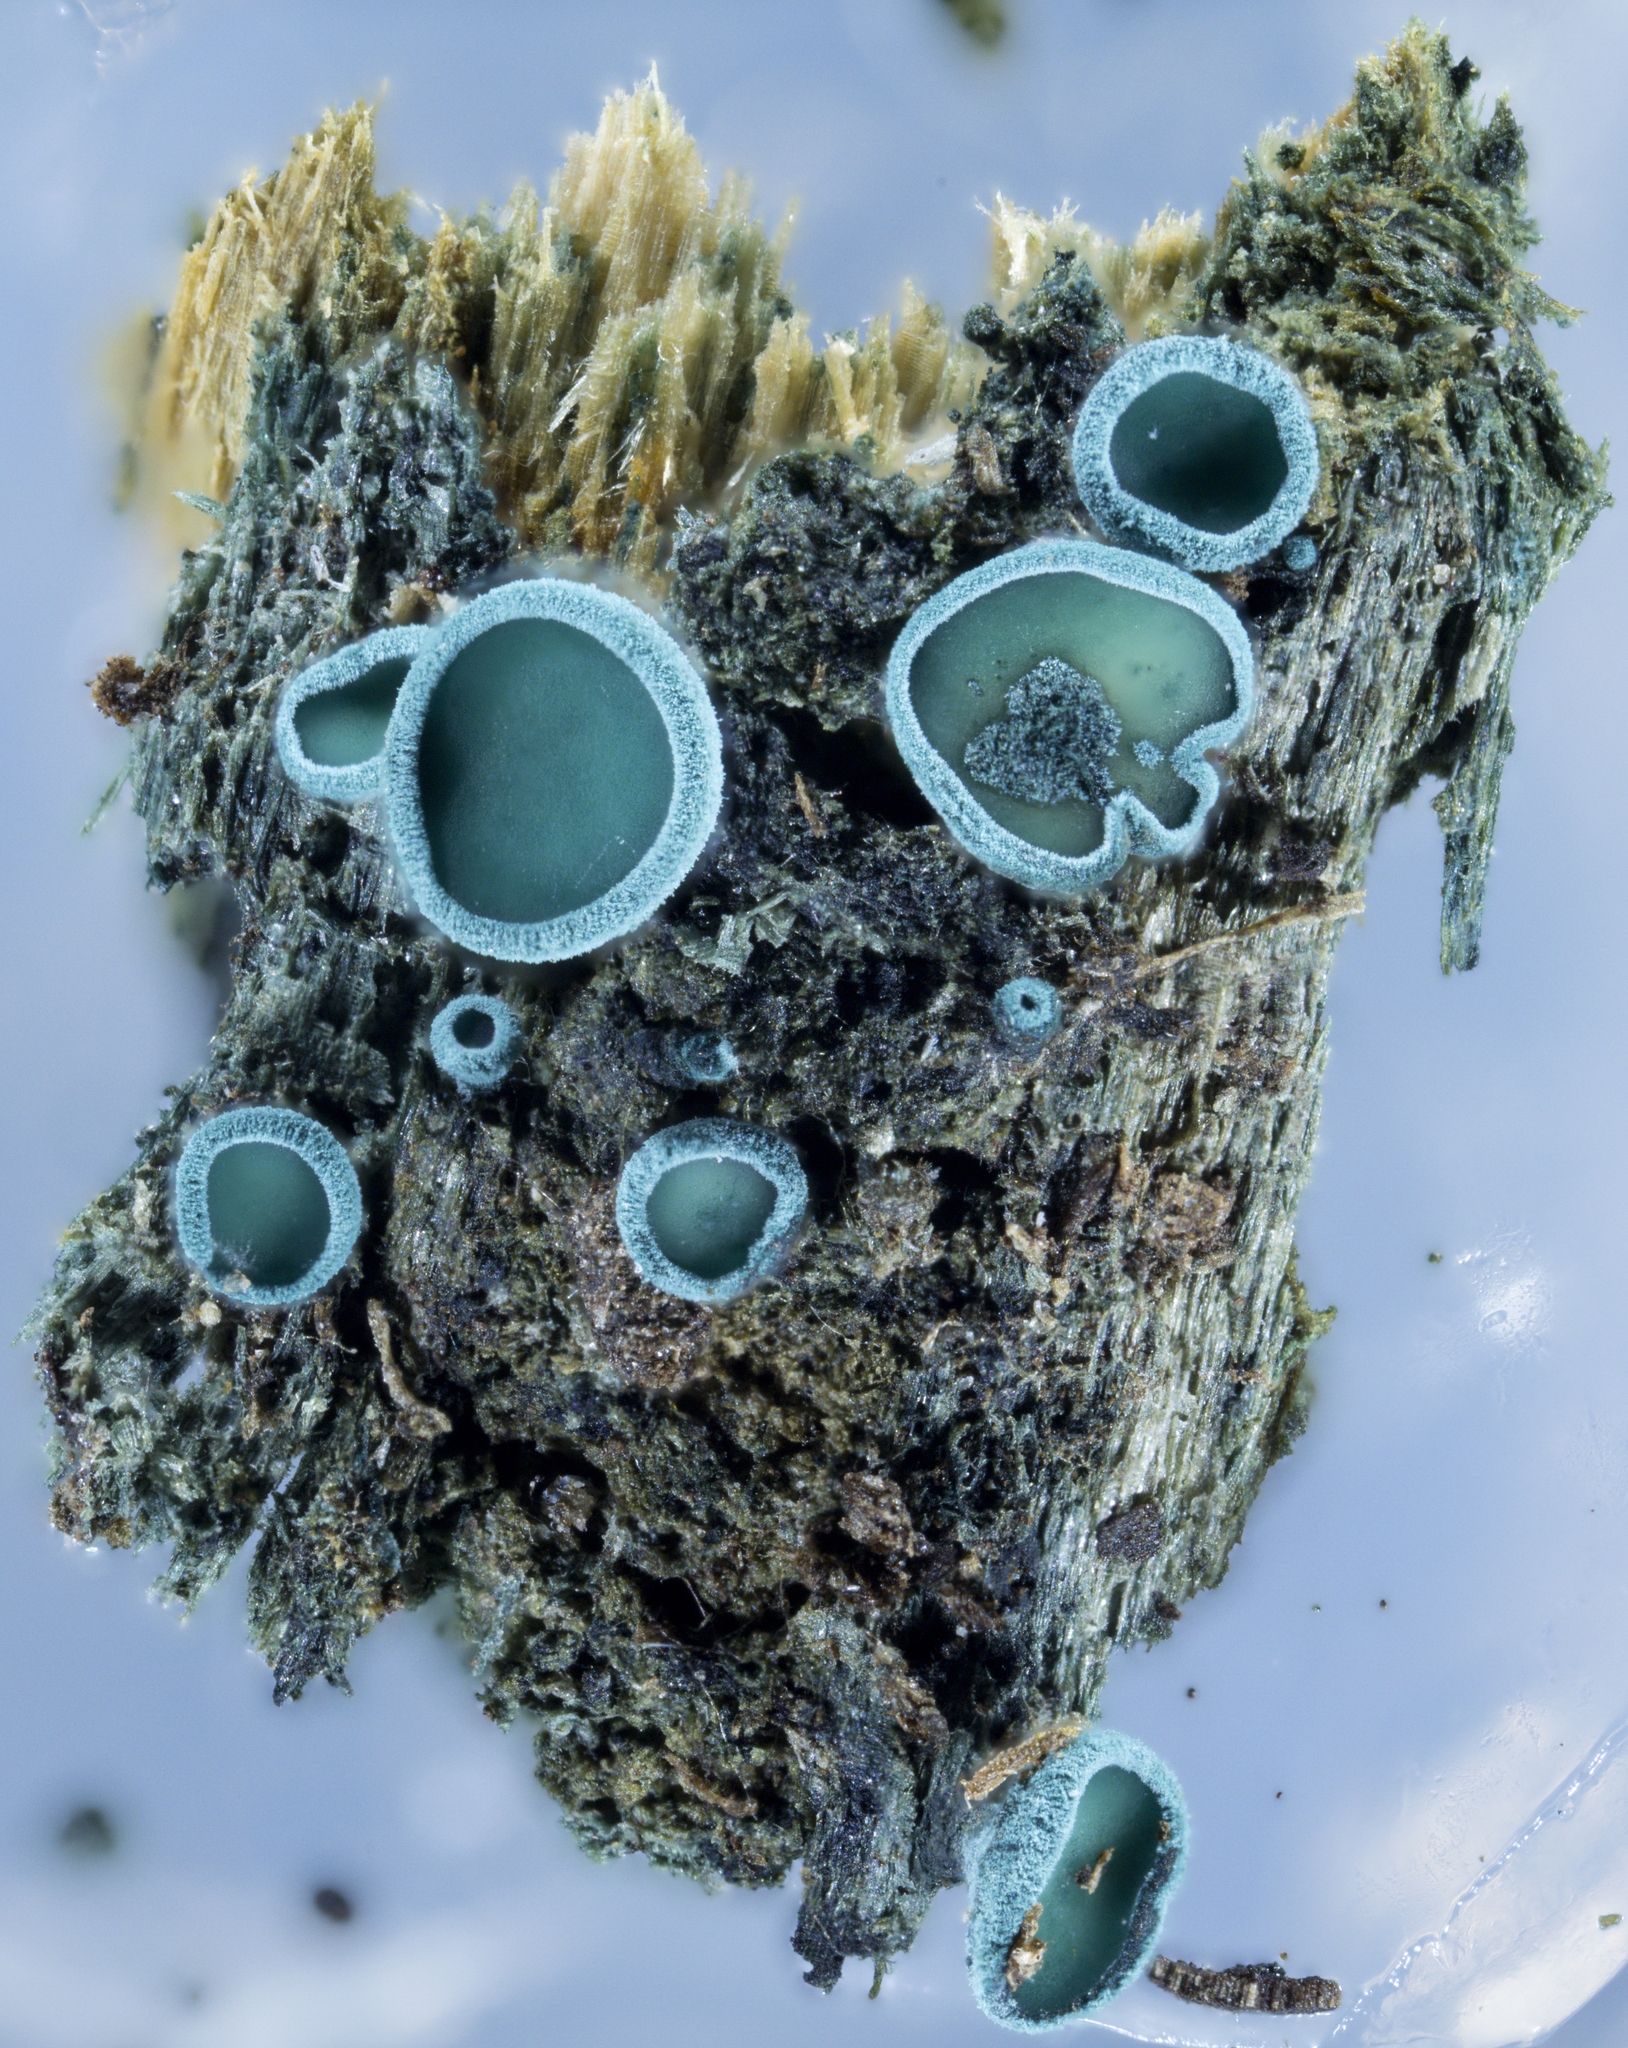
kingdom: Fungi
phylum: Ascomycota
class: Leotiomycetes
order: Helotiales
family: Chlorociboriaceae
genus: Chlorociboria
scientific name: Chlorociboria aeruginosa
